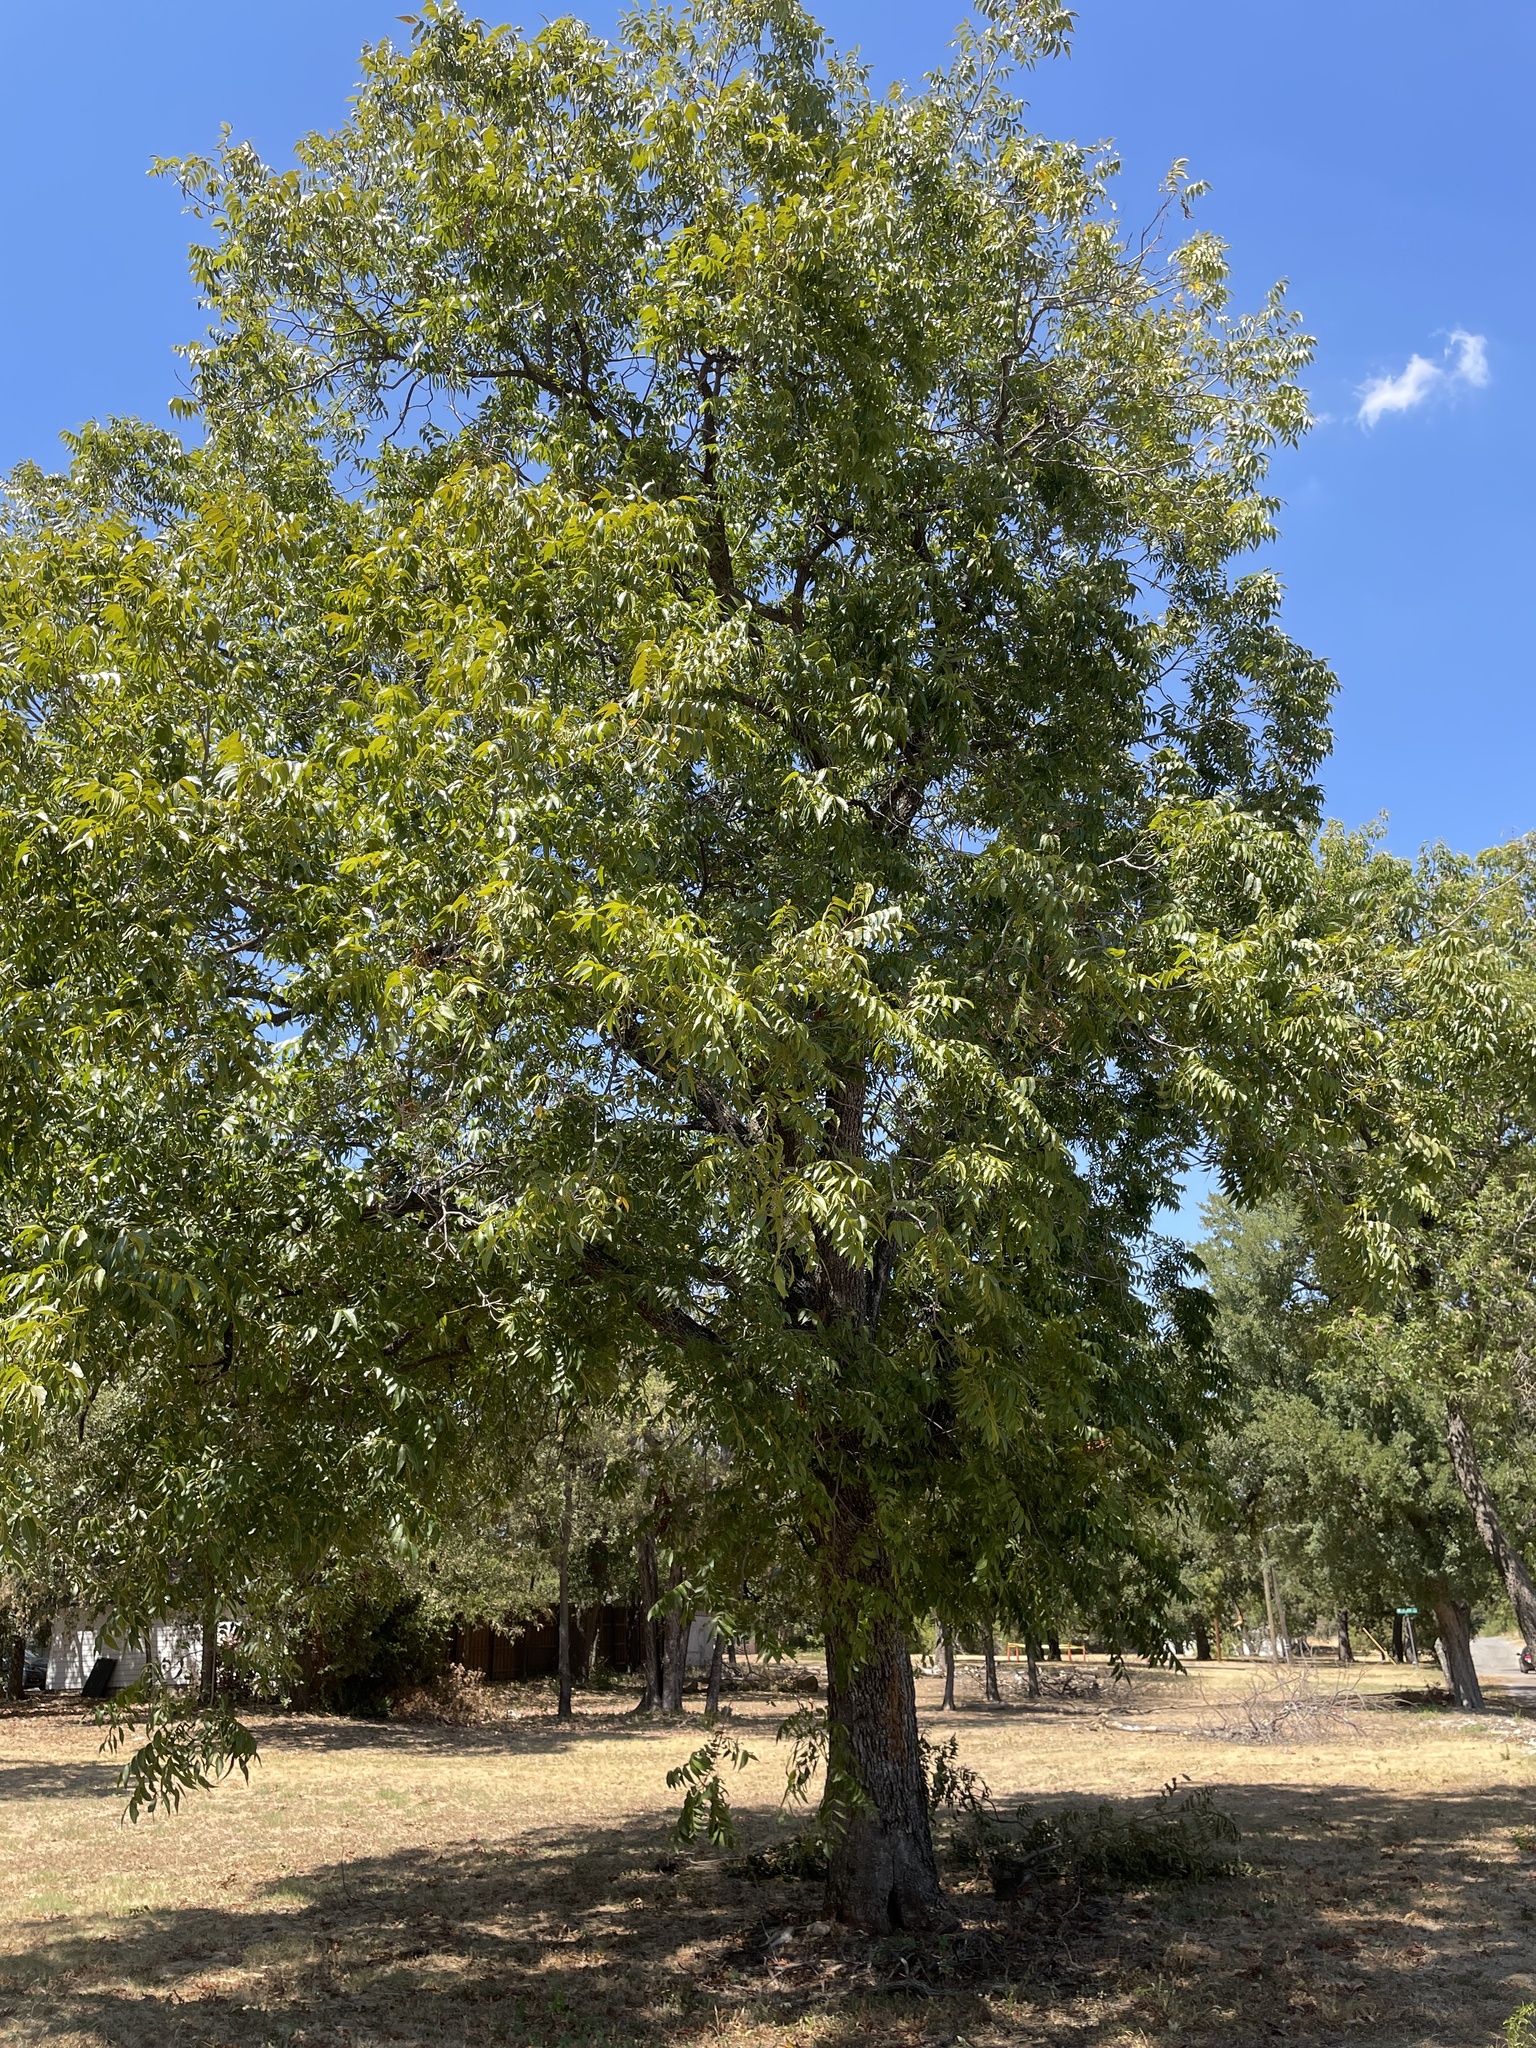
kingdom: Plantae
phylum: Tracheophyta
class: Magnoliopsida
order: Fagales
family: Juglandaceae
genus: Carya
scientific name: Carya illinoinensis
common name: Pecan
